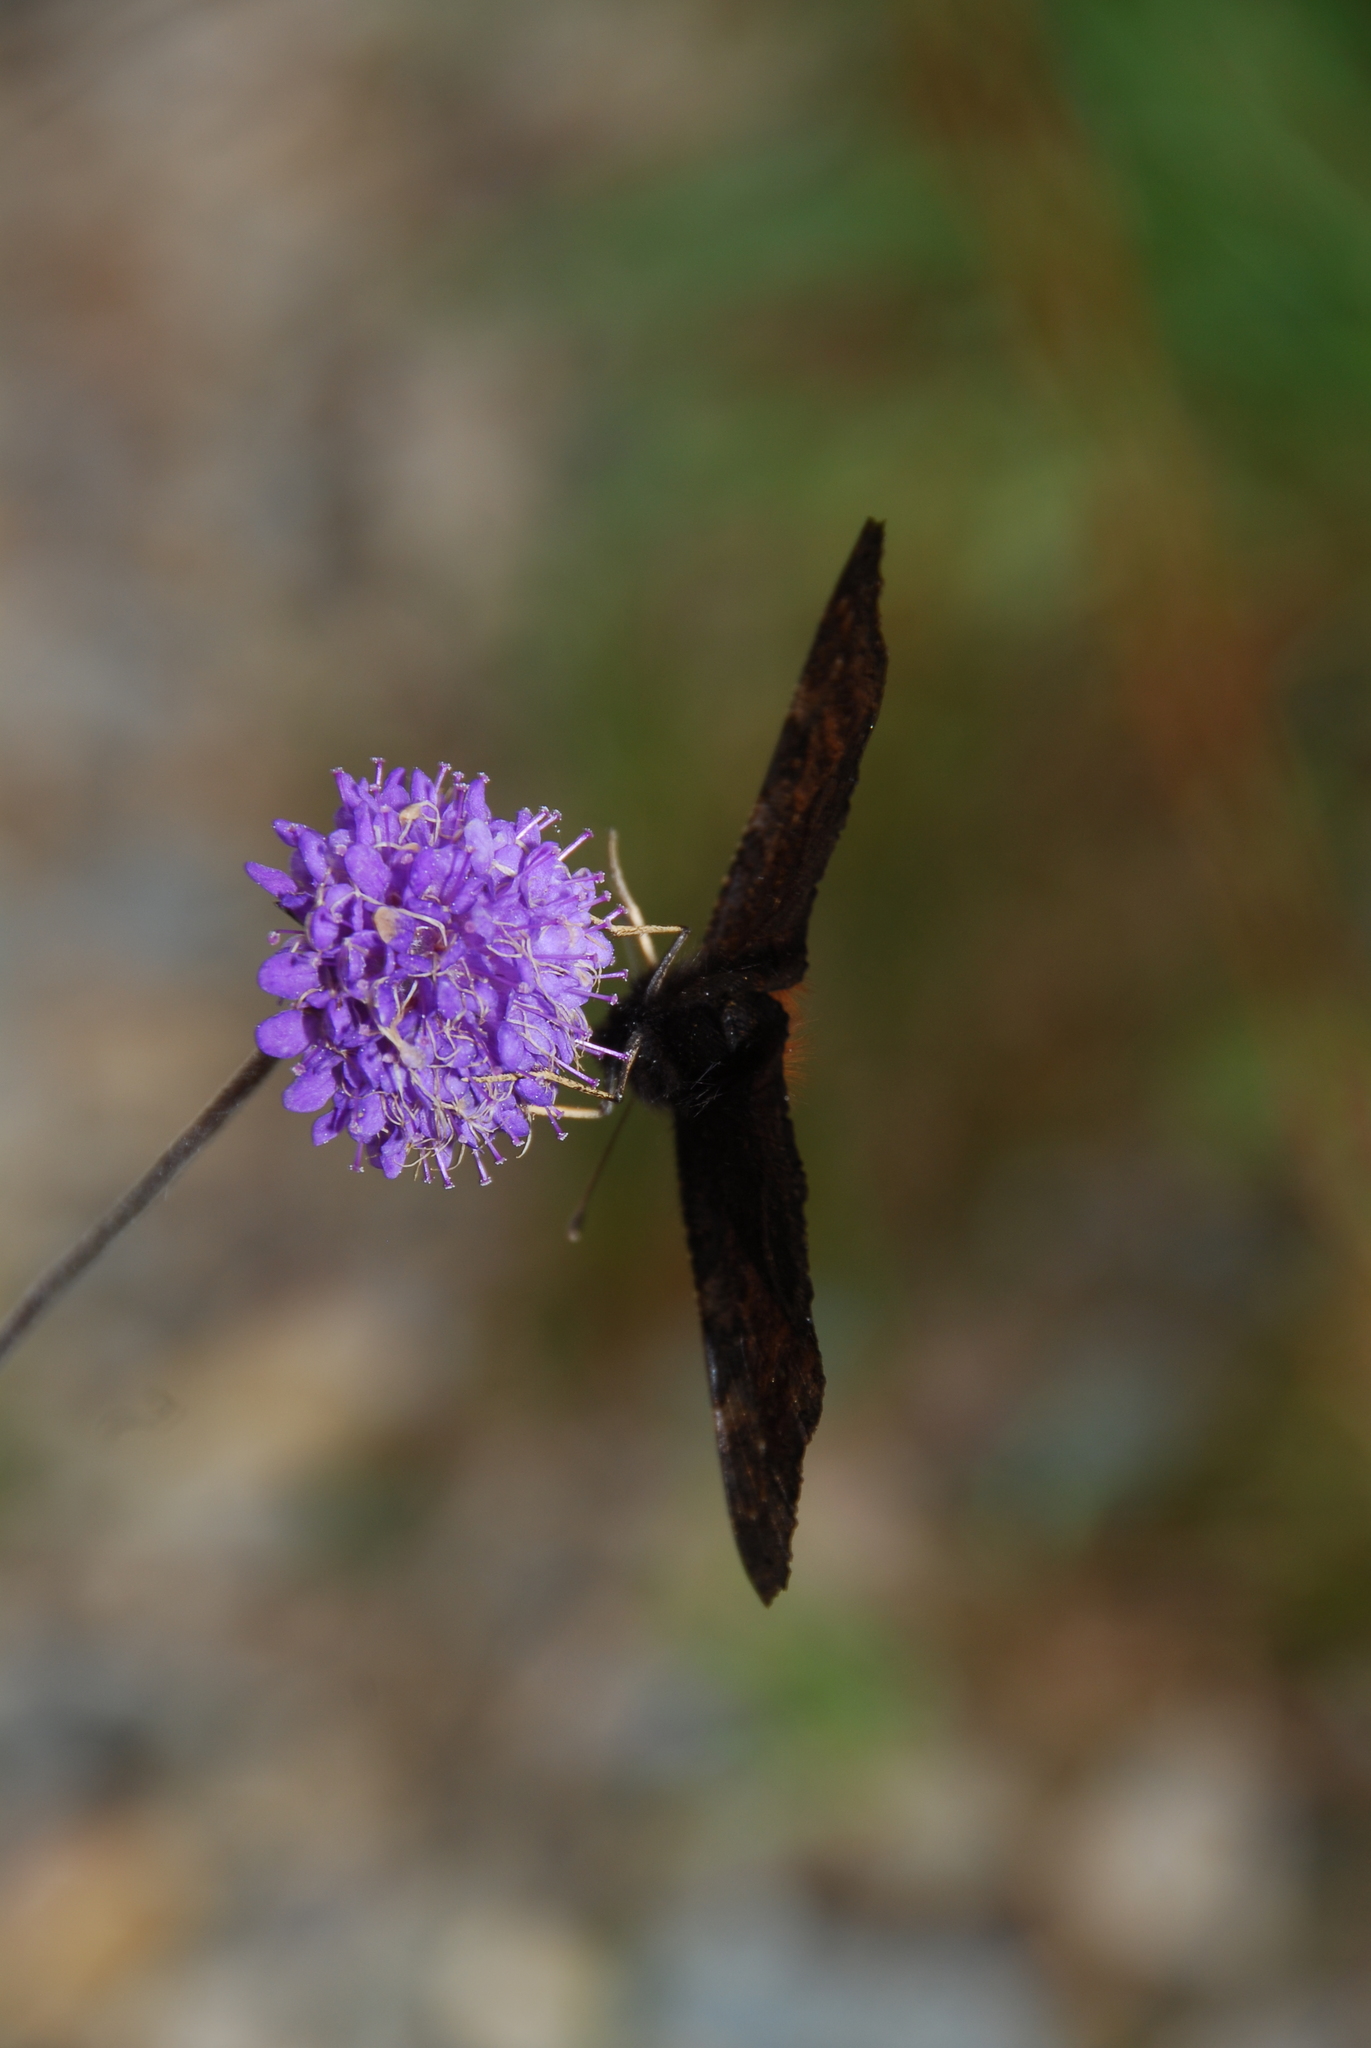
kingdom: Animalia
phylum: Arthropoda
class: Insecta
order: Lepidoptera
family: Nymphalidae
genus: Aglais
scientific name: Aglais io
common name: Peacock
